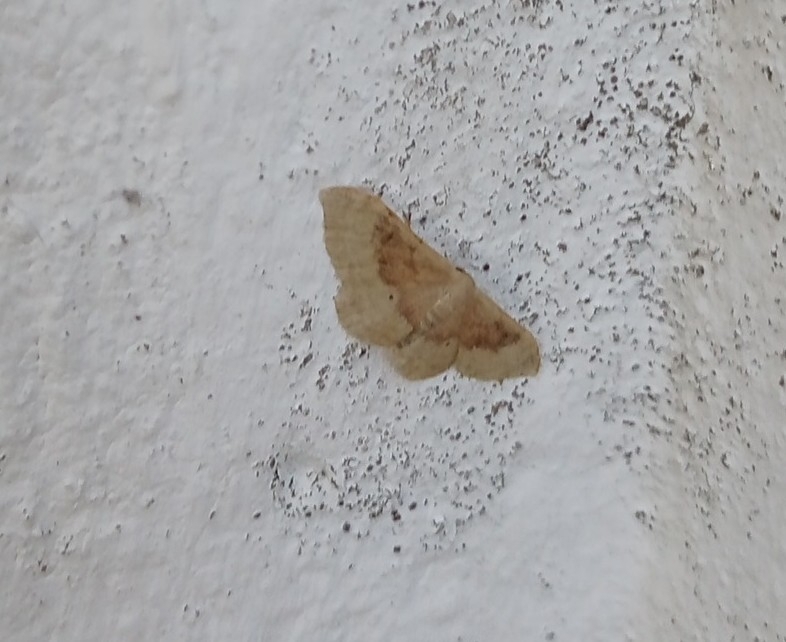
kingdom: Animalia
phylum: Arthropoda
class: Insecta
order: Lepidoptera
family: Geometridae
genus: Idaea
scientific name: Idaea degeneraria
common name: Portland ribbon wave
